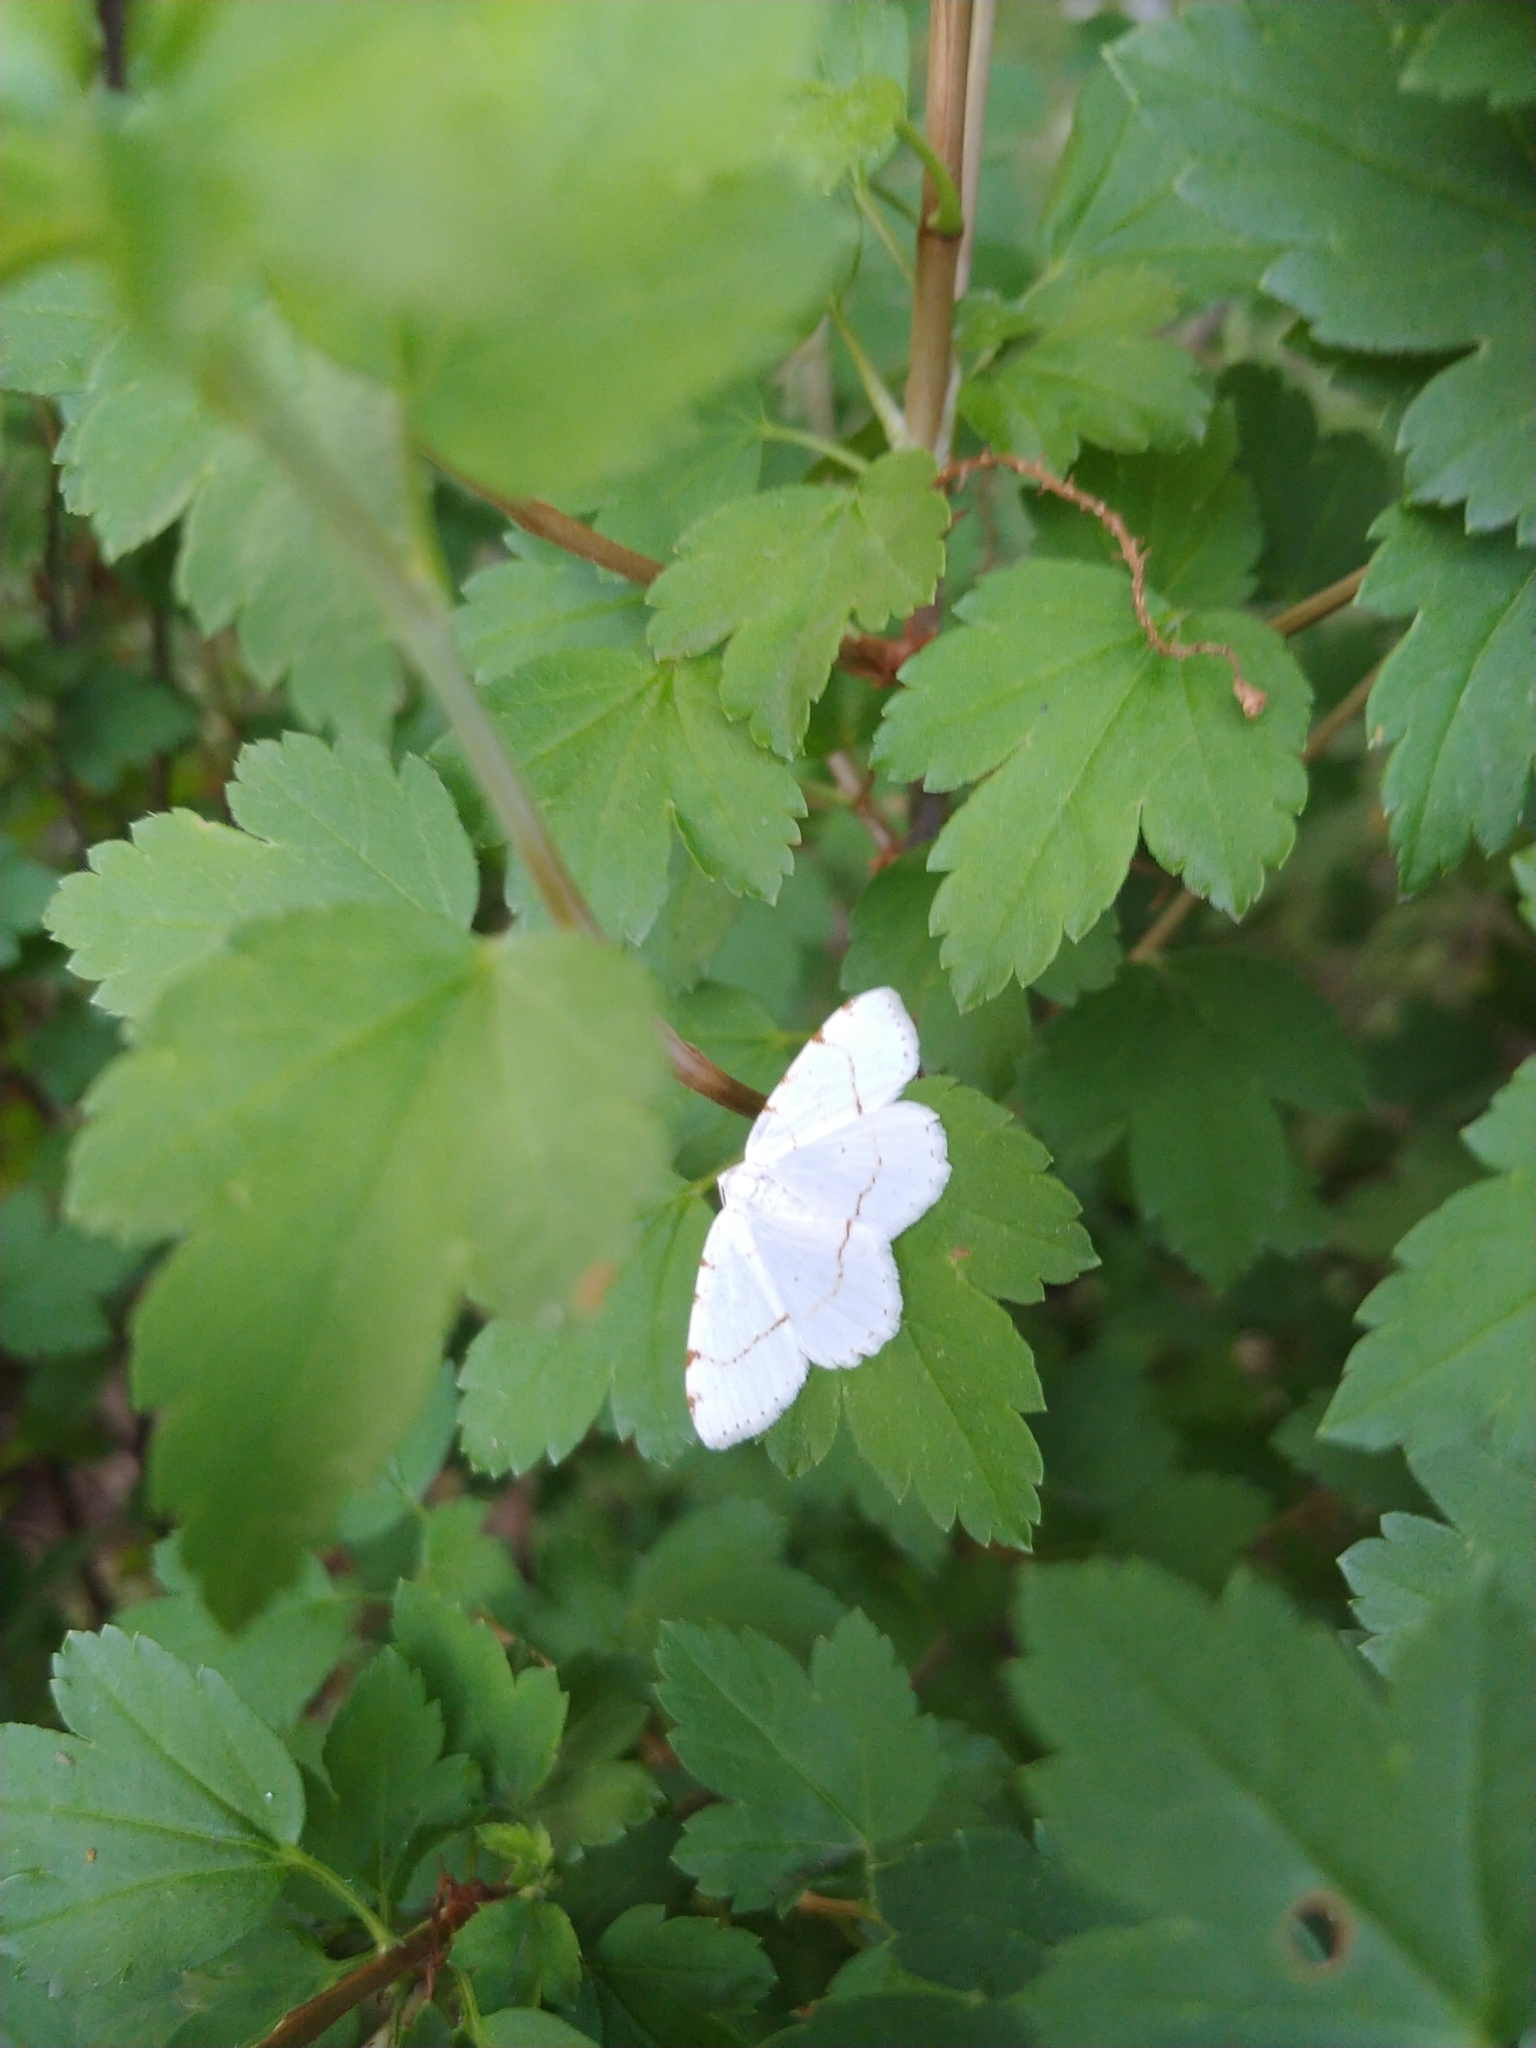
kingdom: Animalia
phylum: Arthropoda
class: Insecta
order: Lepidoptera
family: Geometridae
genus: Macaria
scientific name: Macaria pustularia
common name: Lesser maple spanworm moth
